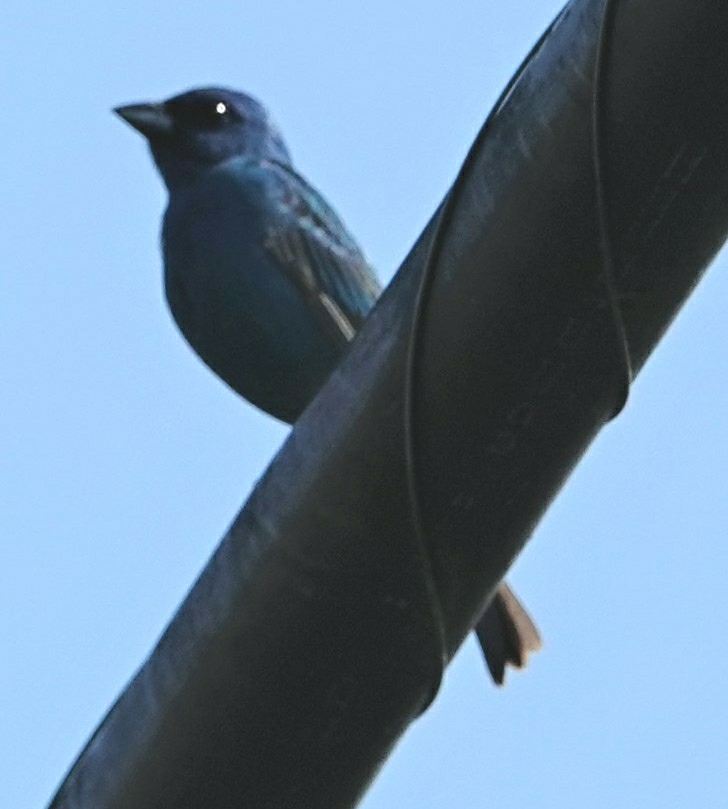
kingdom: Animalia
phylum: Chordata
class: Aves
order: Passeriformes
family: Cardinalidae
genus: Passerina
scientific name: Passerina cyanea
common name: Indigo bunting
